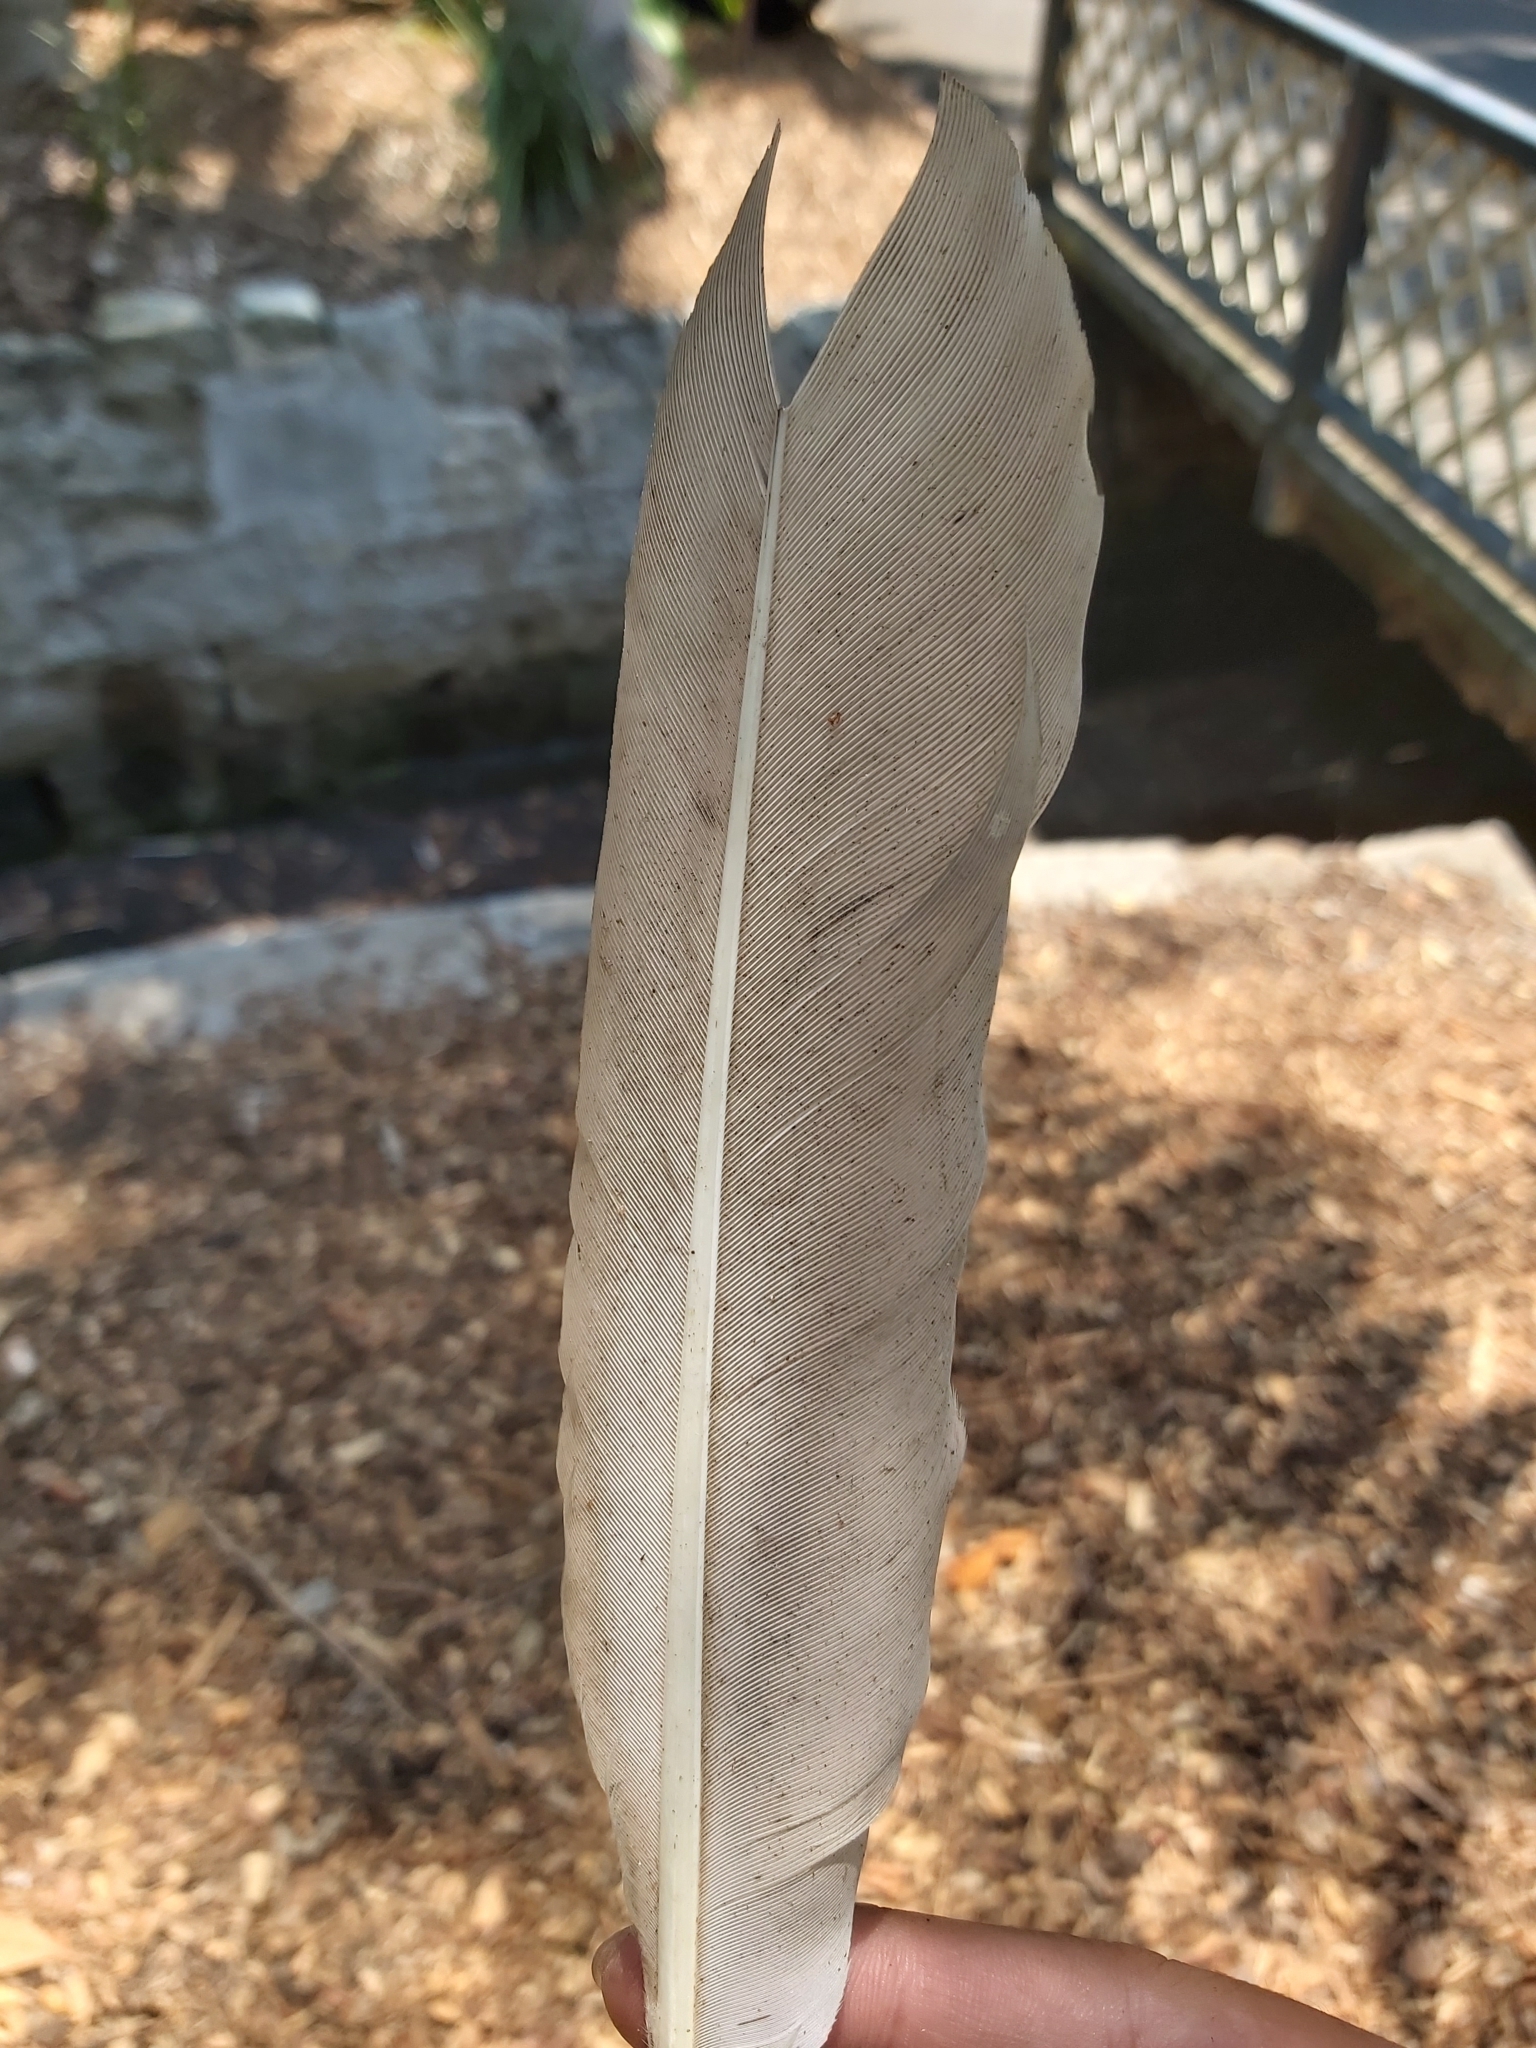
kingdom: Animalia
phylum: Chordata
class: Aves
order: Pelecaniformes
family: Threskiornithidae
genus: Threskiornis
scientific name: Threskiornis molucca
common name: Australian white ibis
